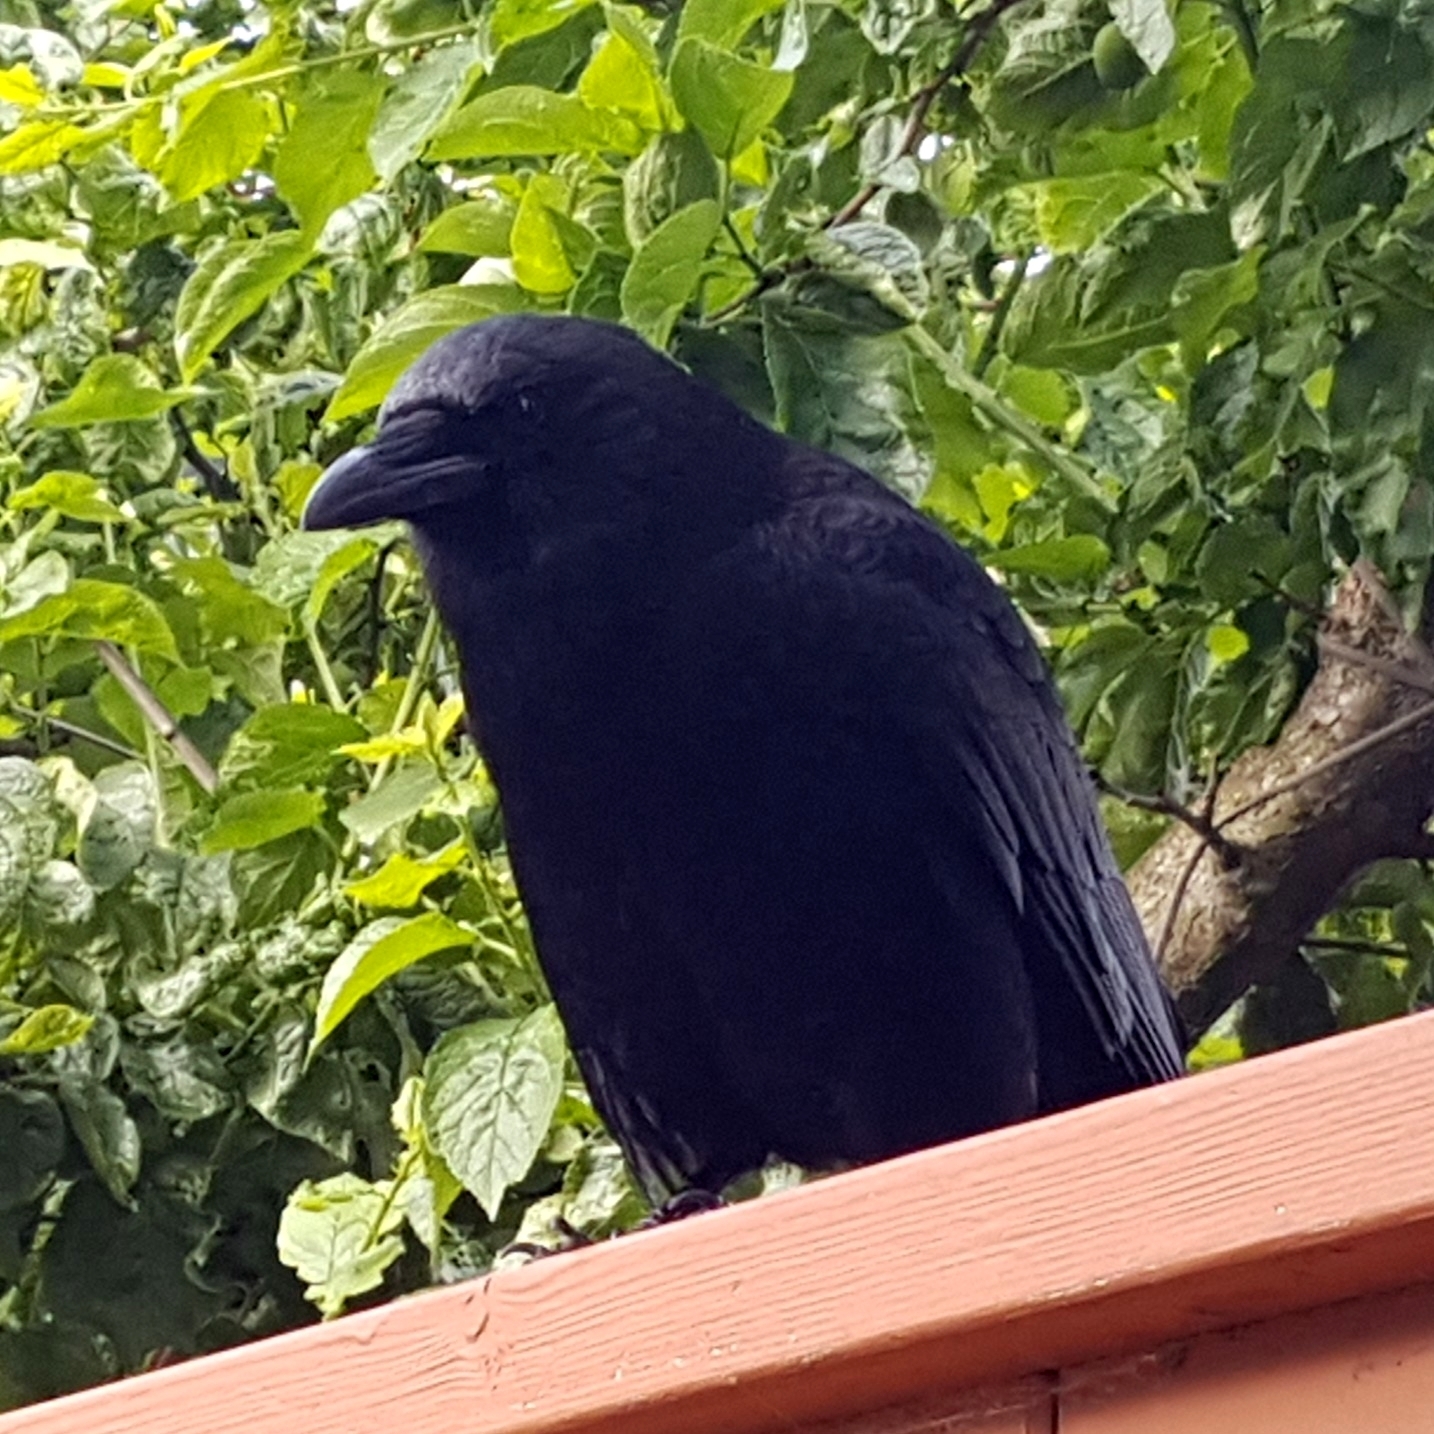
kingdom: Animalia
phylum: Chordata
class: Aves
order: Passeriformes
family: Corvidae
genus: Corvus
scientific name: Corvus brachyrhynchos
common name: American crow
